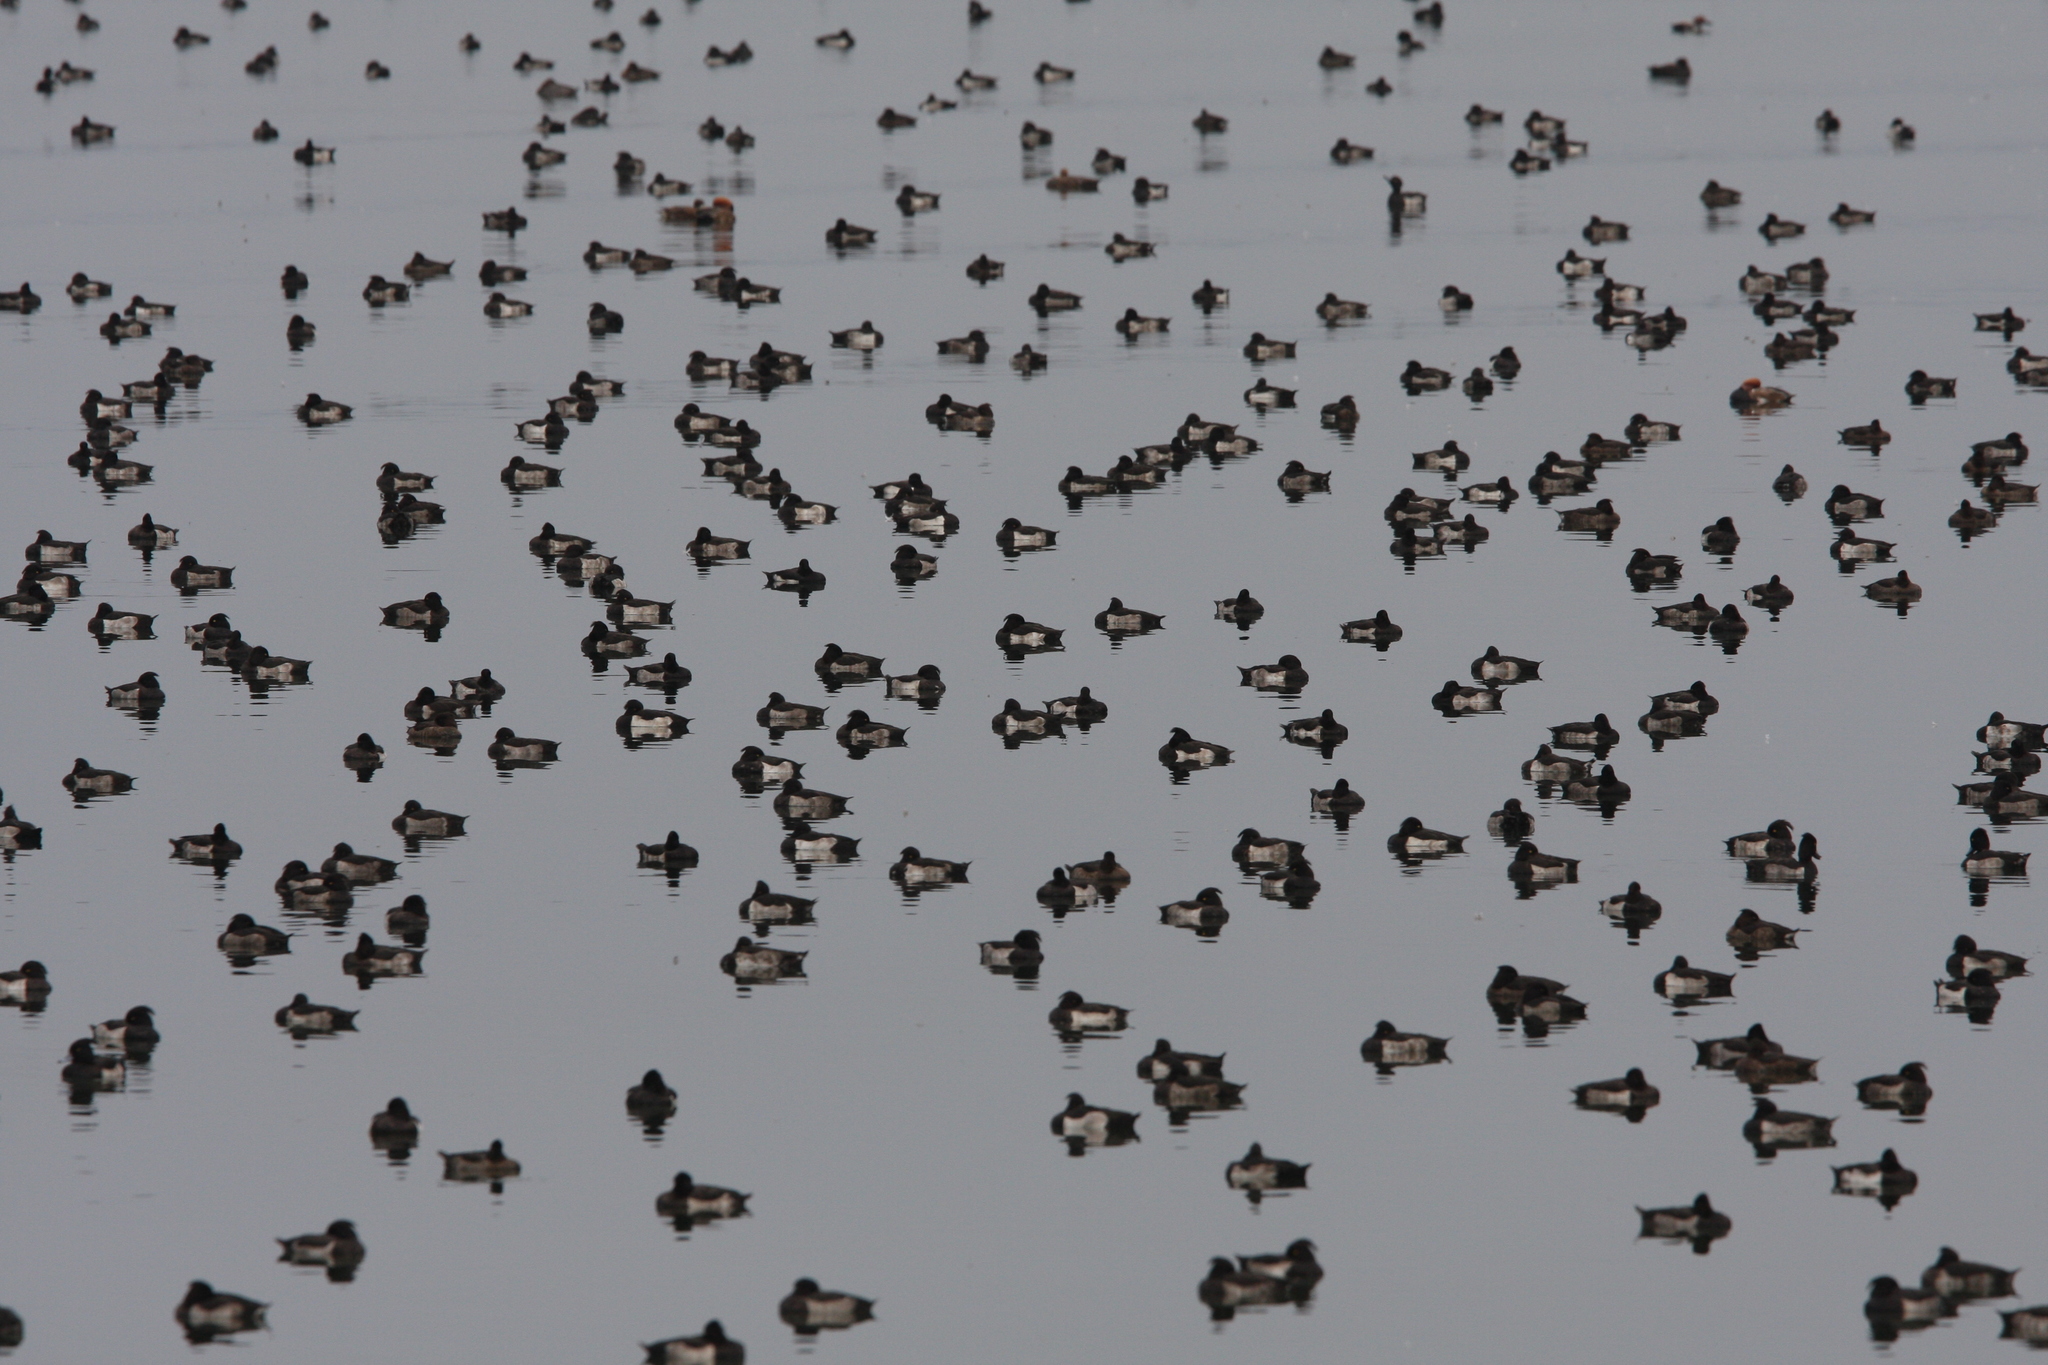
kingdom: Animalia
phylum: Chordata
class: Aves
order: Anseriformes
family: Anatidae
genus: Aythya
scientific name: Aythya fuligula
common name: Tufted duck
